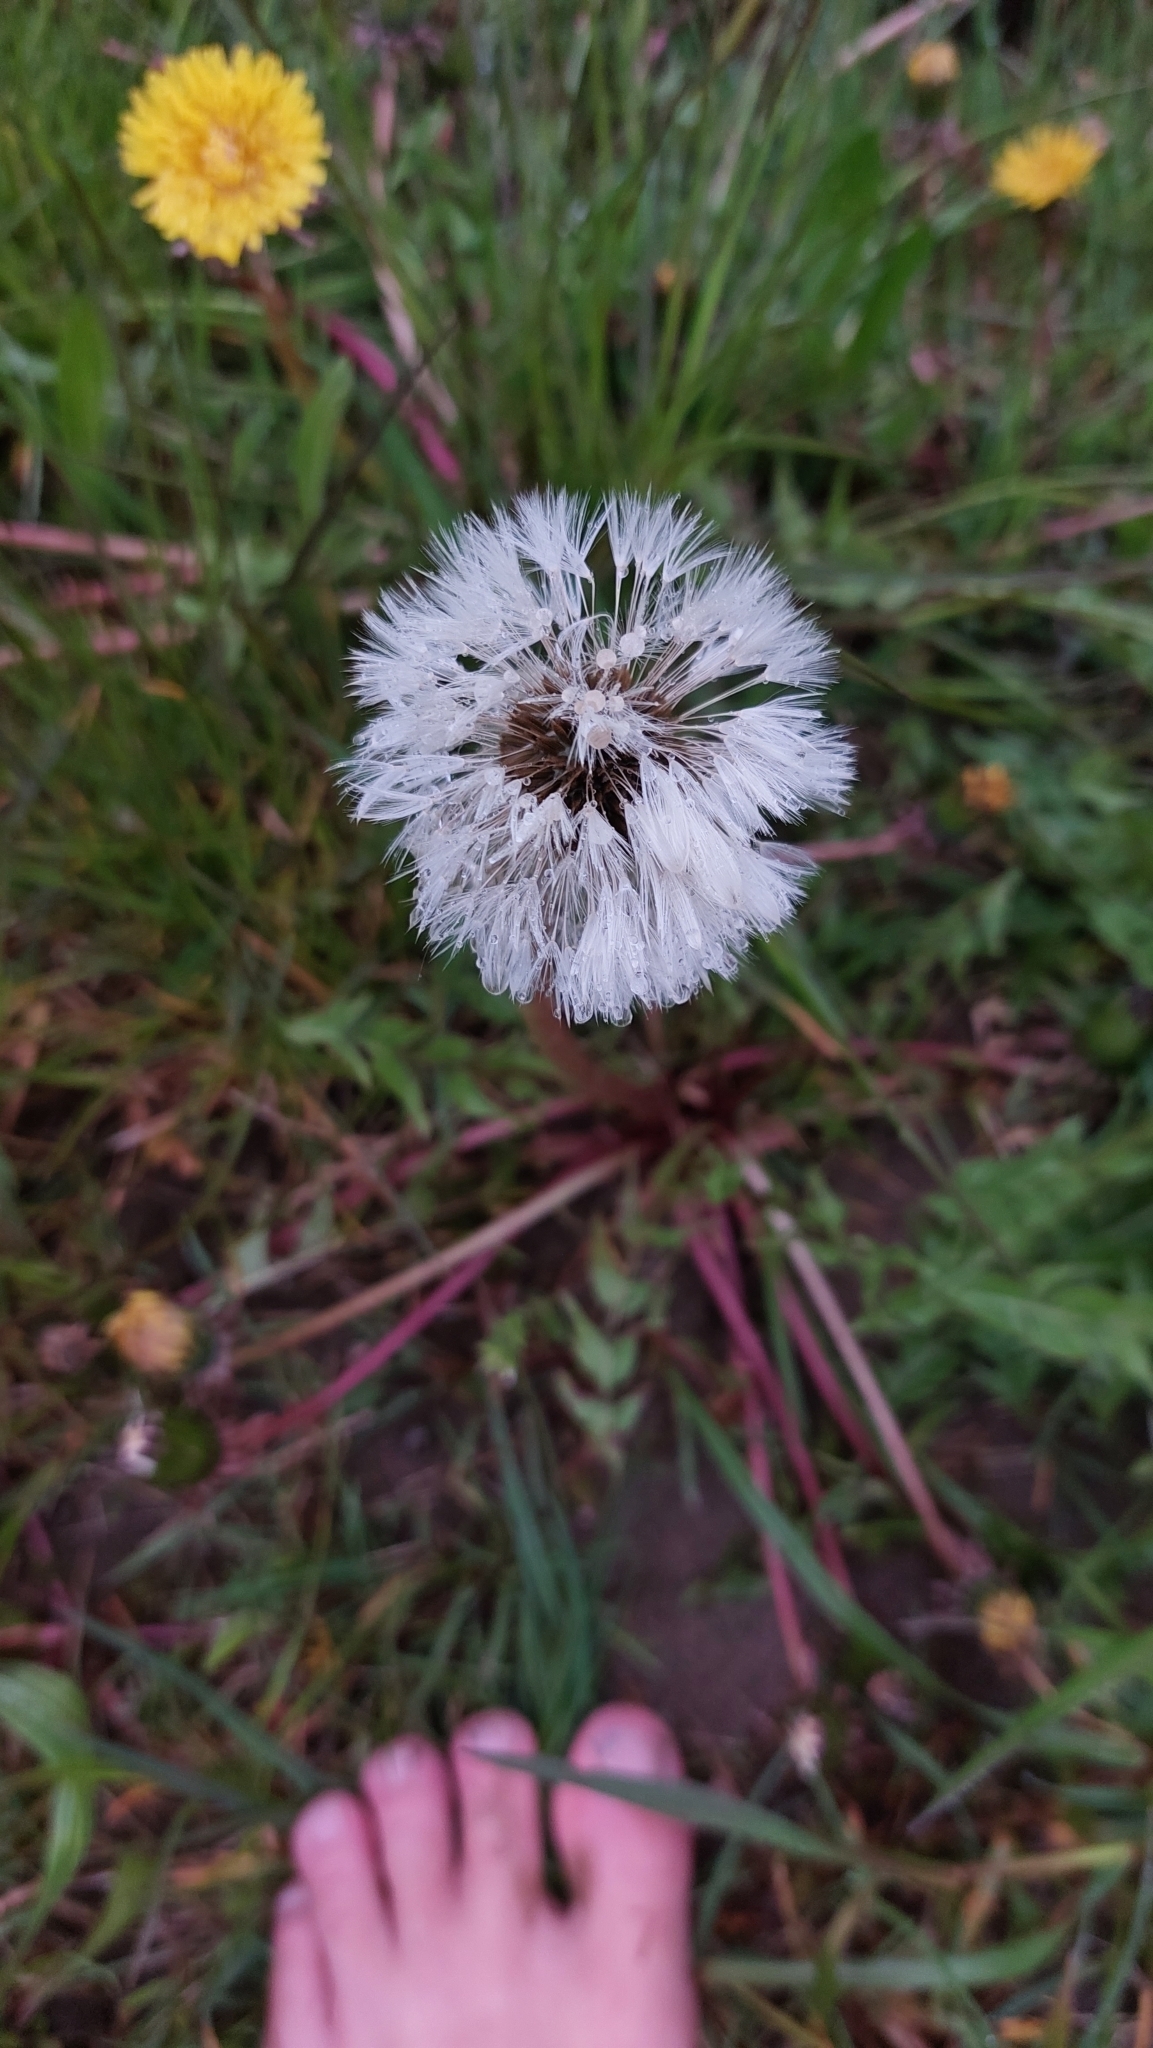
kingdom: Plantae
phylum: Tracheophyta
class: Magnoliopsida
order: Asterales
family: Asteraceae
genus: Taraxacum
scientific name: Taraxacum
